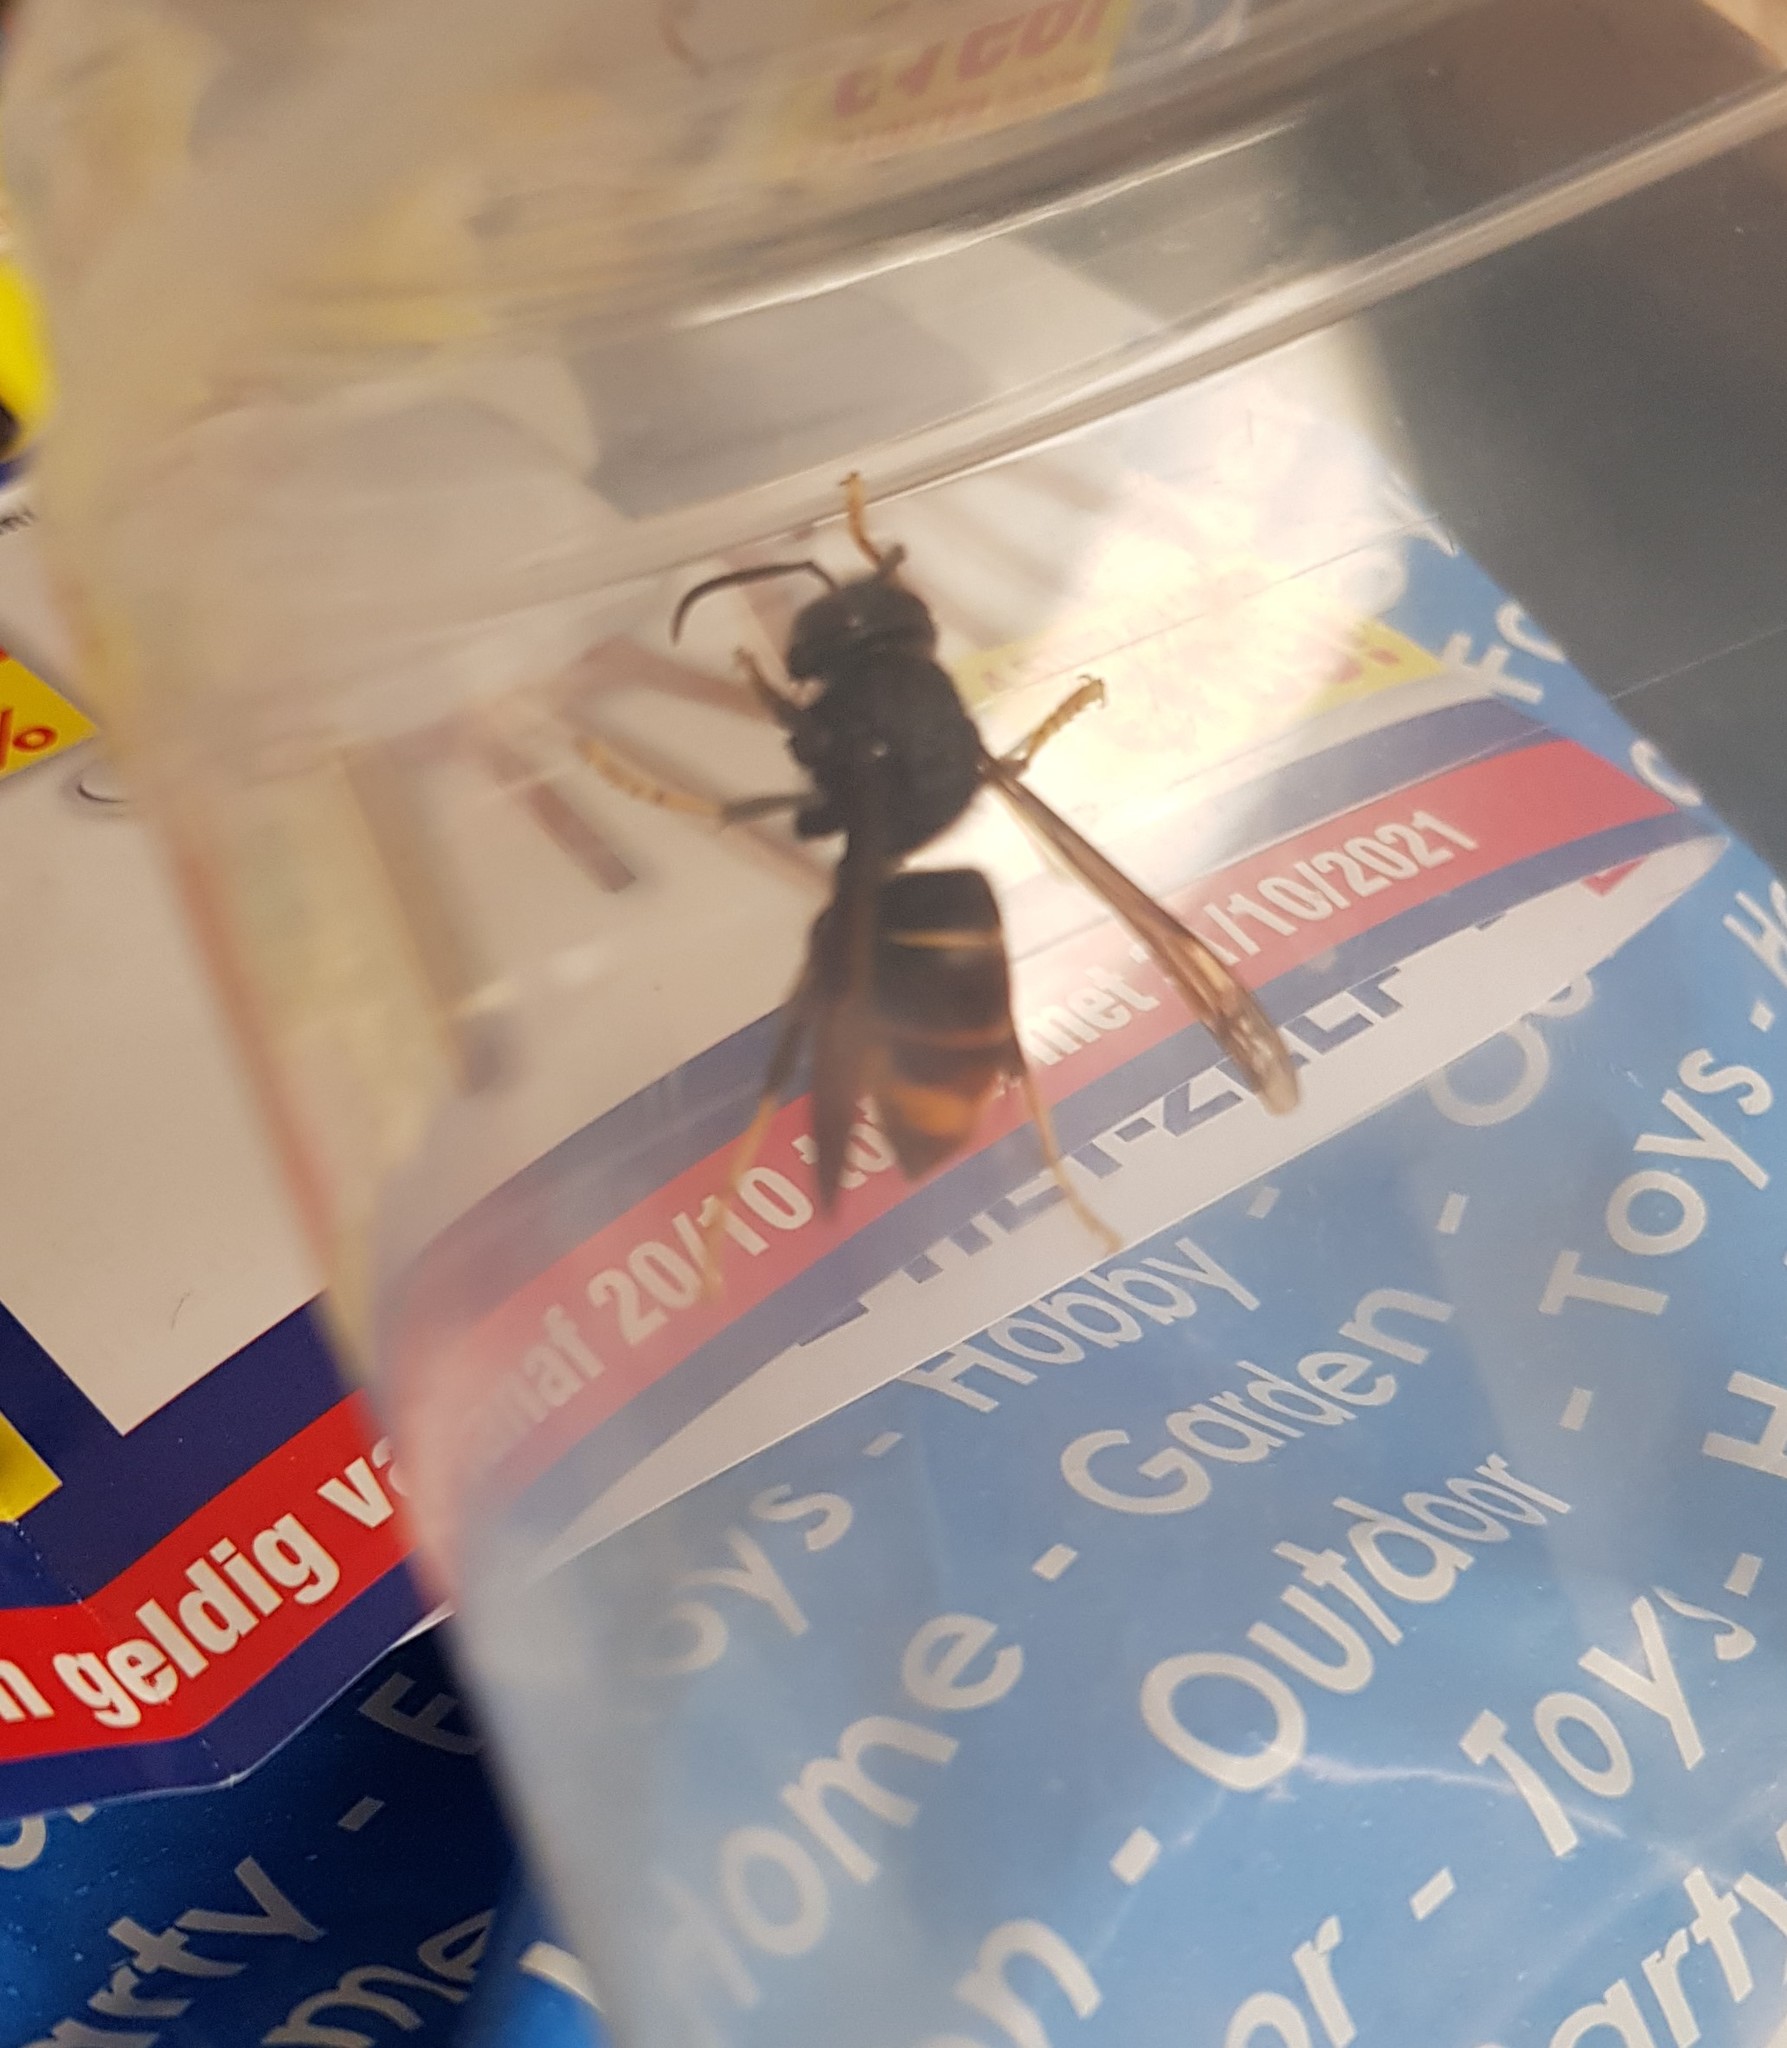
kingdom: Animalia
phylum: Arthropoda
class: Insecta
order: Hymenoptera
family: Vespidae
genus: Vespa
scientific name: Vespa velutina
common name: Asian hornet
